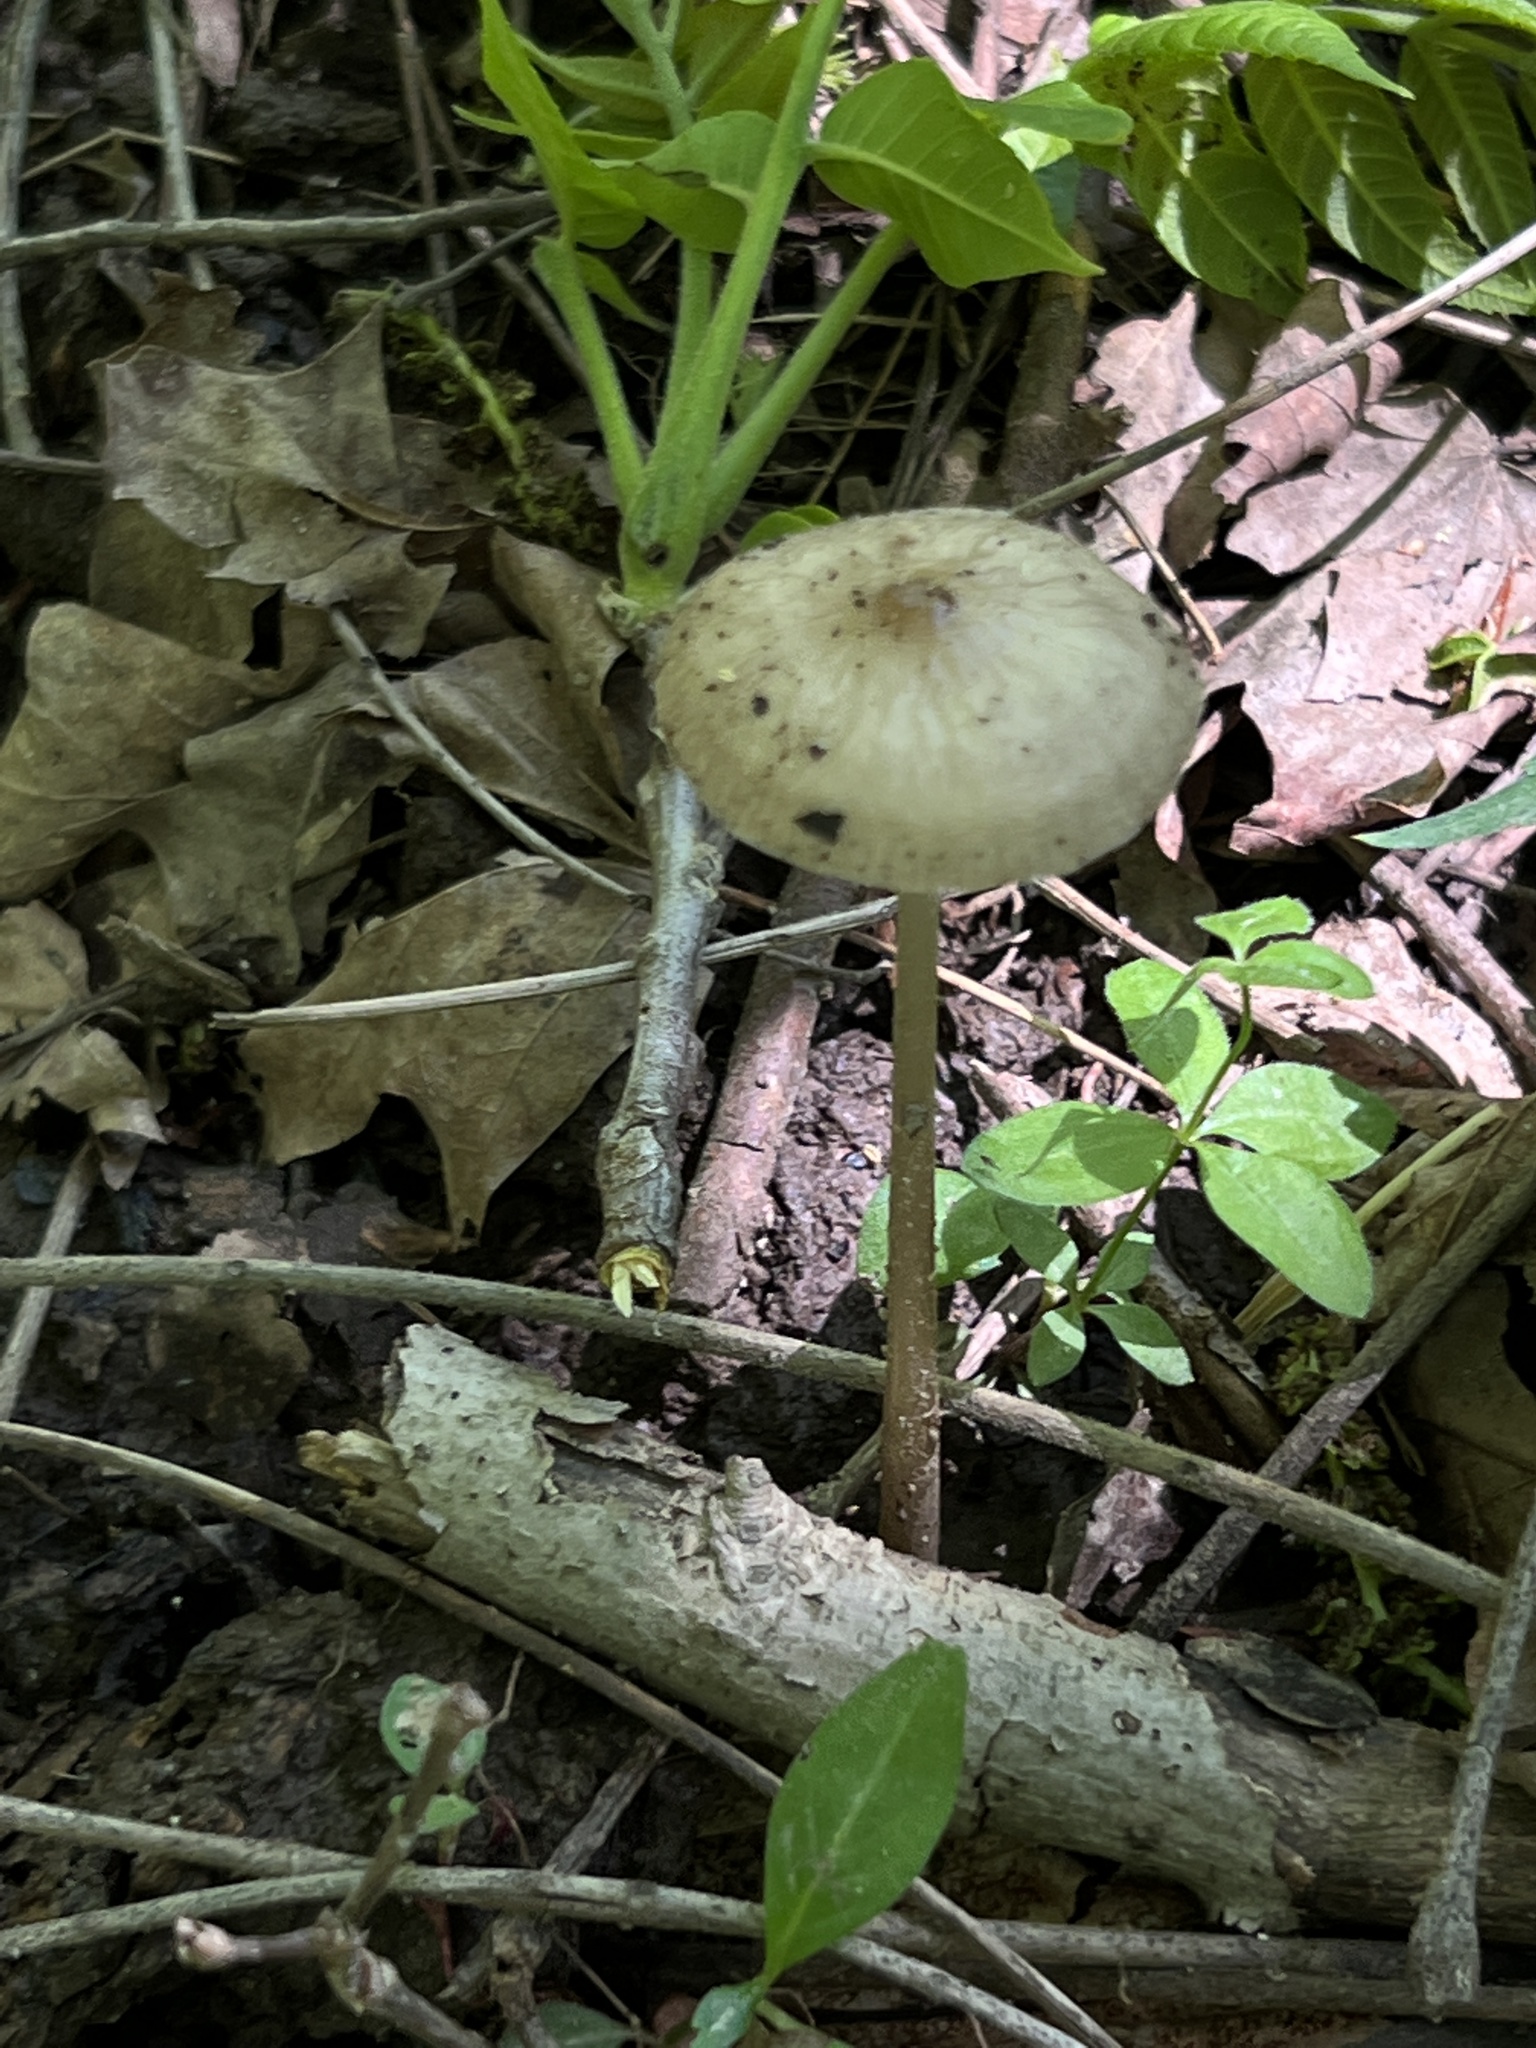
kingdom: Fungi
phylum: Basidiomycota
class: Agaricomycetes
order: Agaricales
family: Physalacriaceae
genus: Hymenopellis
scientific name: Hymenopellis furfuracea
